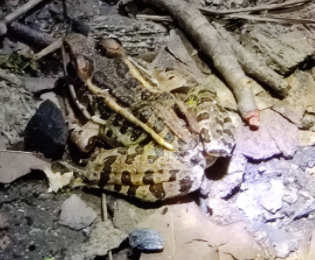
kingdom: Animalia
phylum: Chordata
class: Amphibia
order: Anura
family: Ranidae
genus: Lithobates
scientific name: Lithobates palustris
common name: Pickerel frog
